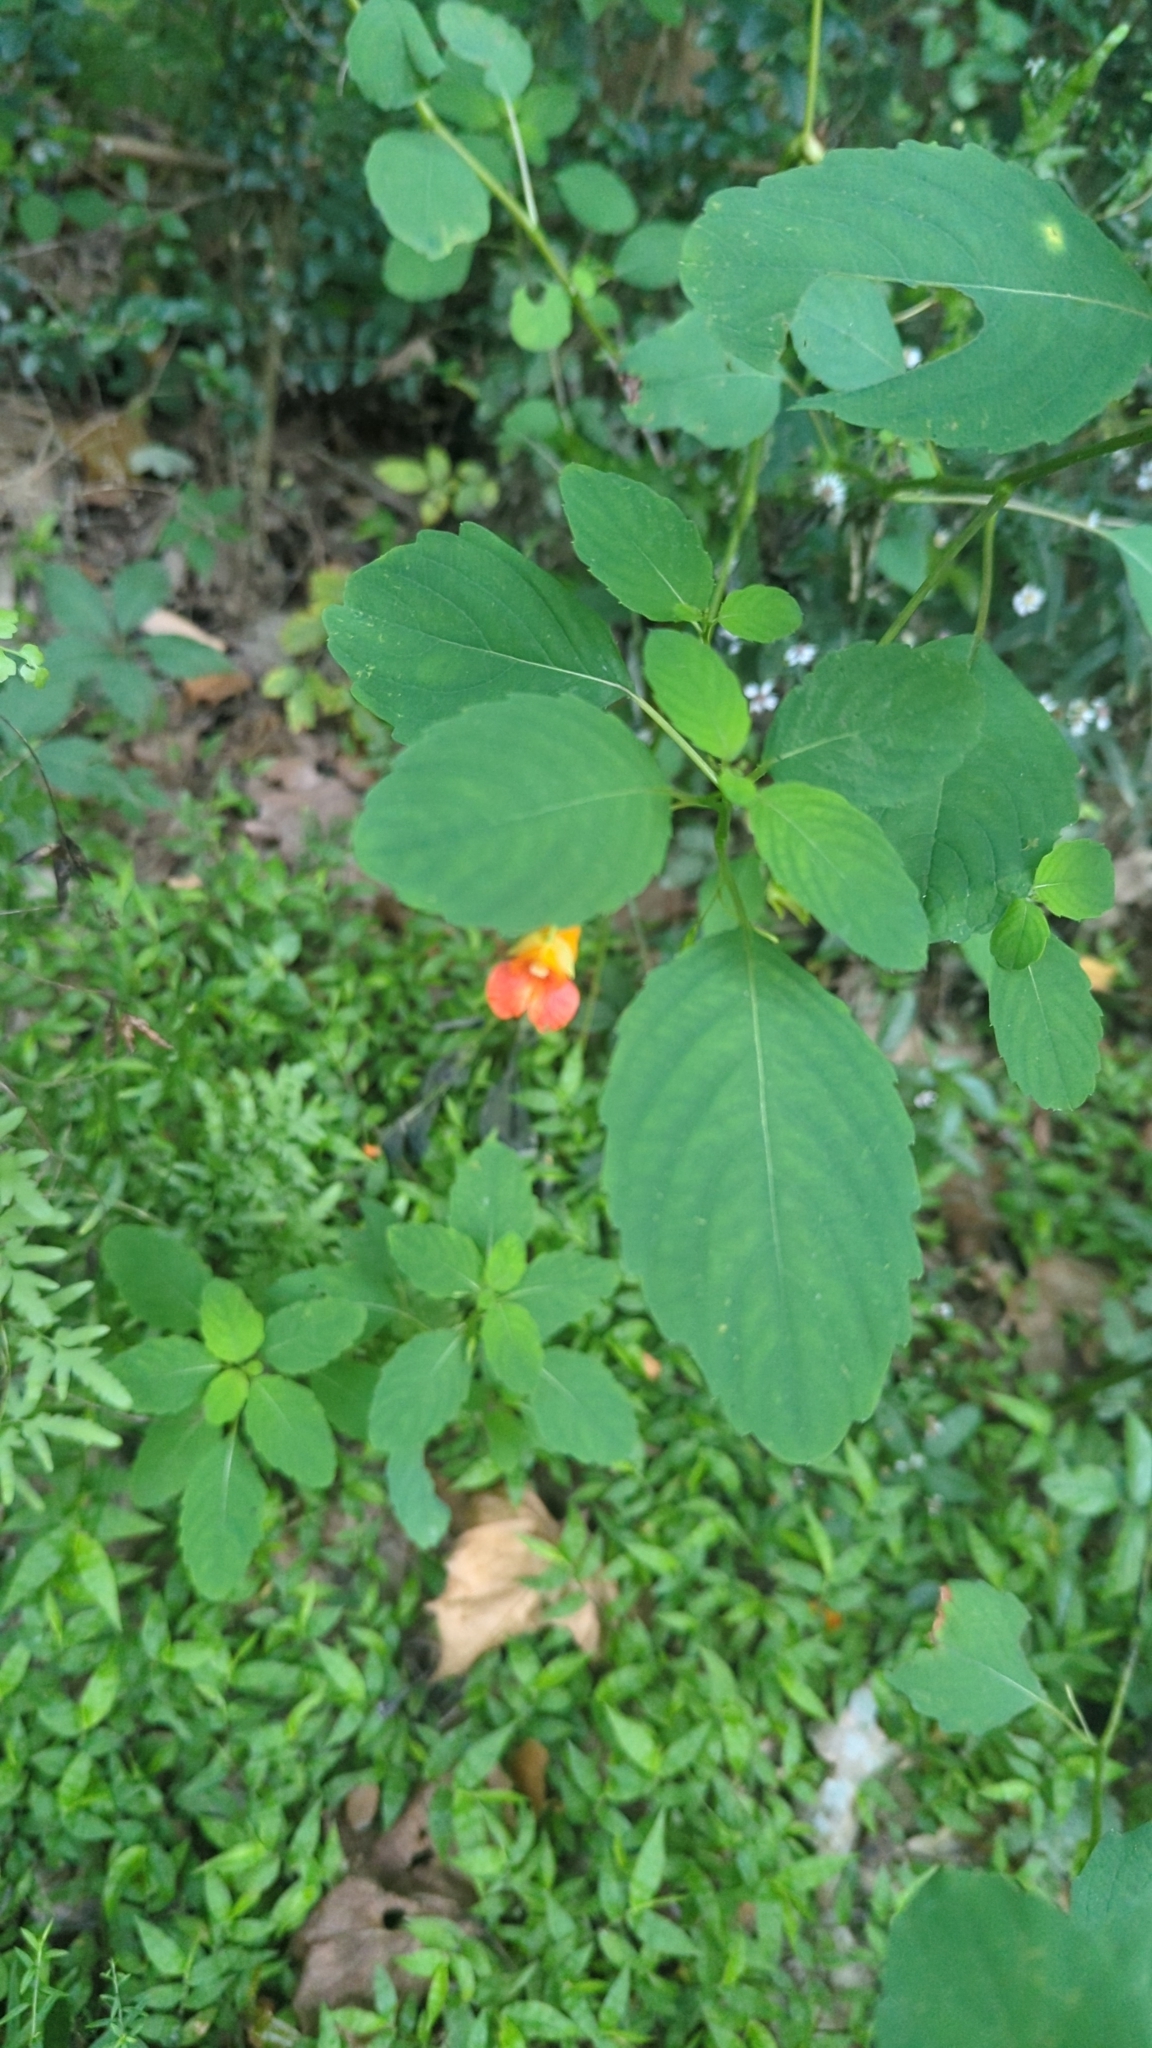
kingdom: Plantae
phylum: Tracheophyta
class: Magnoliopsida
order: Ericales
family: Balsaminaceae
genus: Impatiens
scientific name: Impatiens capensis
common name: Orange balsam
